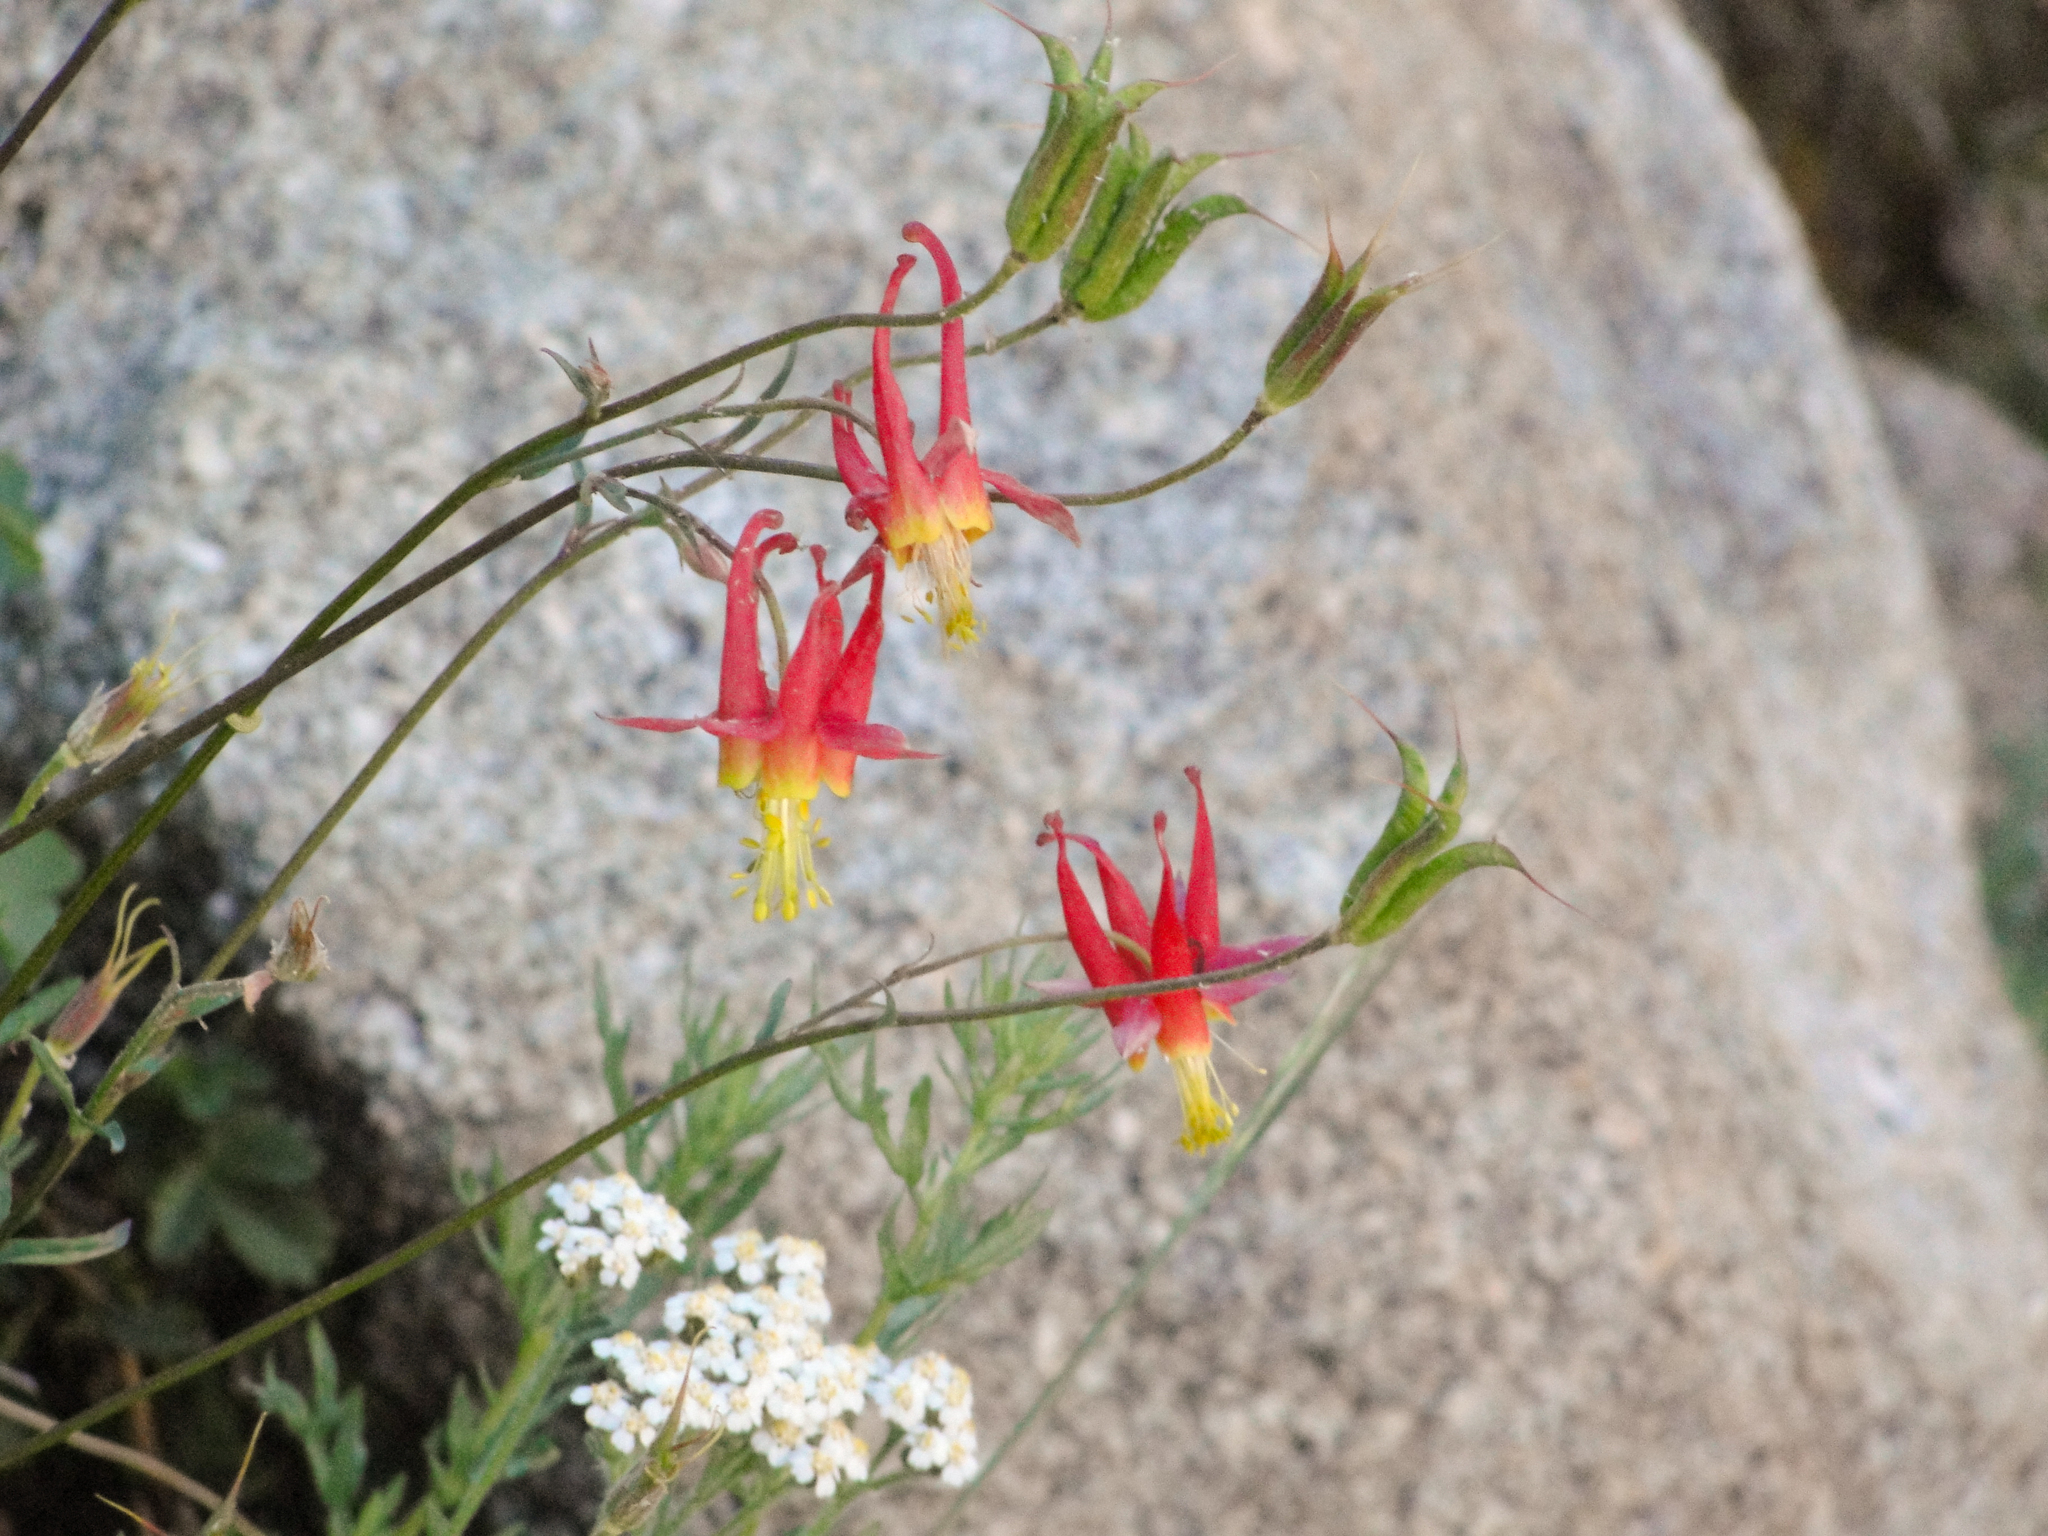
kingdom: Plantae
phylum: Tracheophyta
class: Magnoliopsida
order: Ranunculales
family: Ranunculaceae
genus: Aquilegia
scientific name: Aquilegia formosa
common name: Sitka columbine
